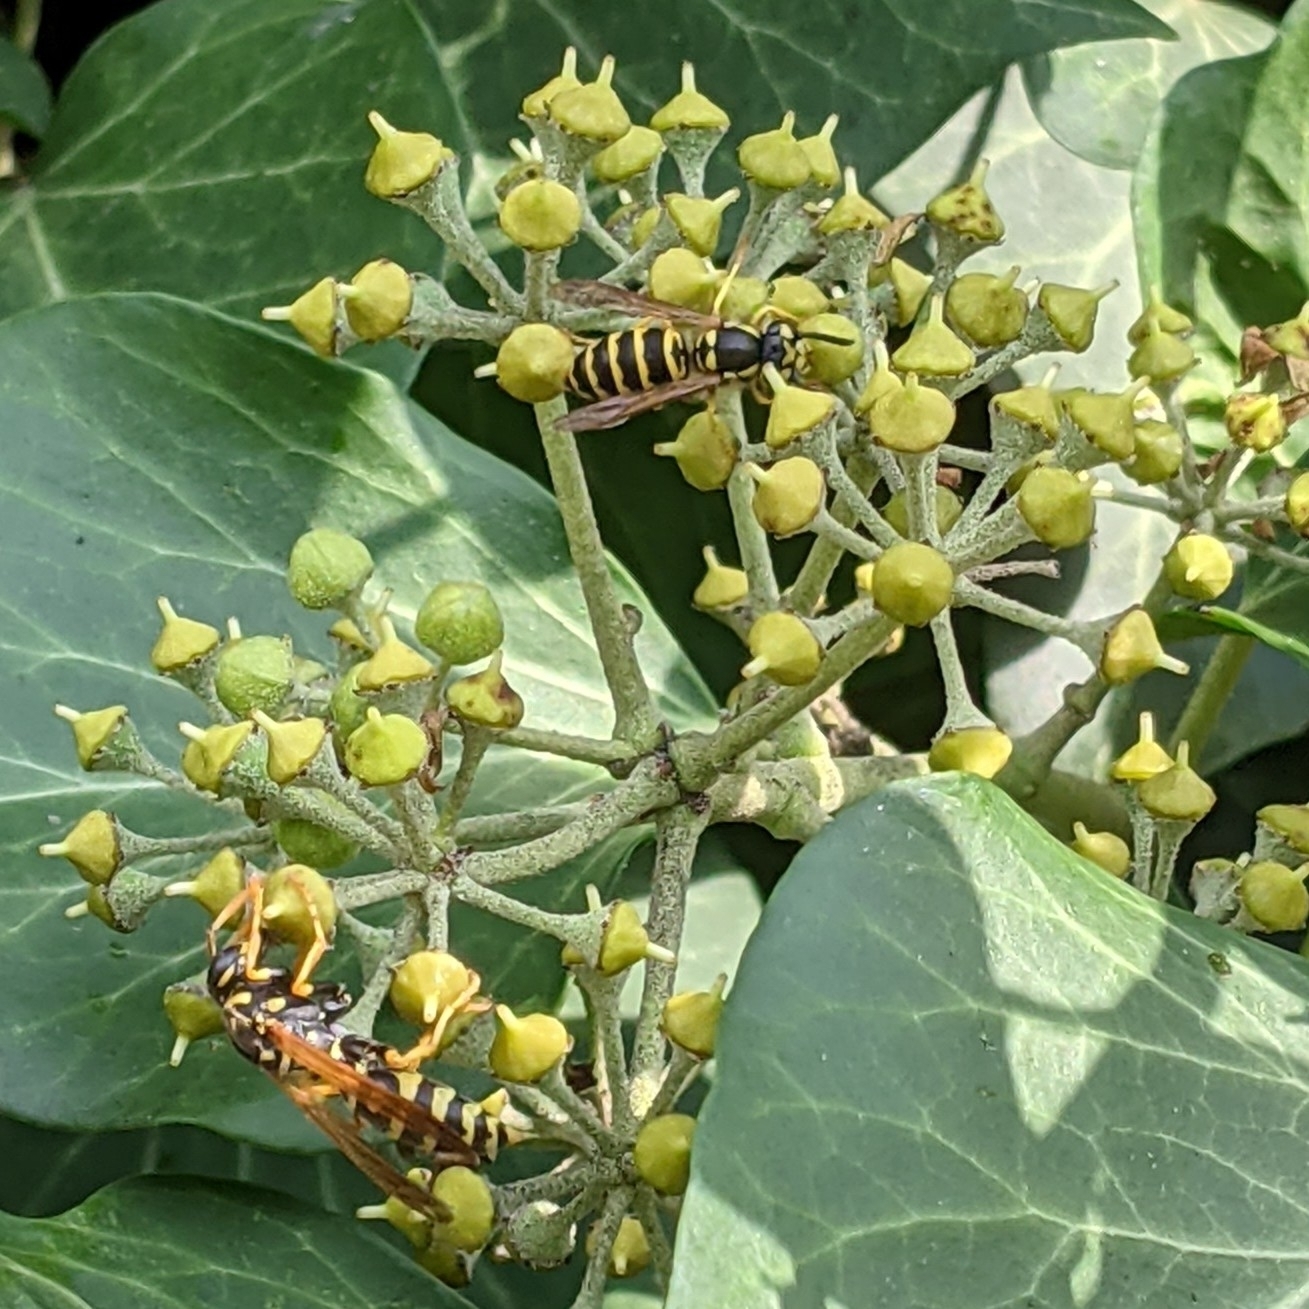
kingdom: Animalia
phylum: Arthropoda
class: Insecta
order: Hymenoptera
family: Vespidae
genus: Vespula
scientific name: Vespula maculifrons
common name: Eastern yellowjacket
